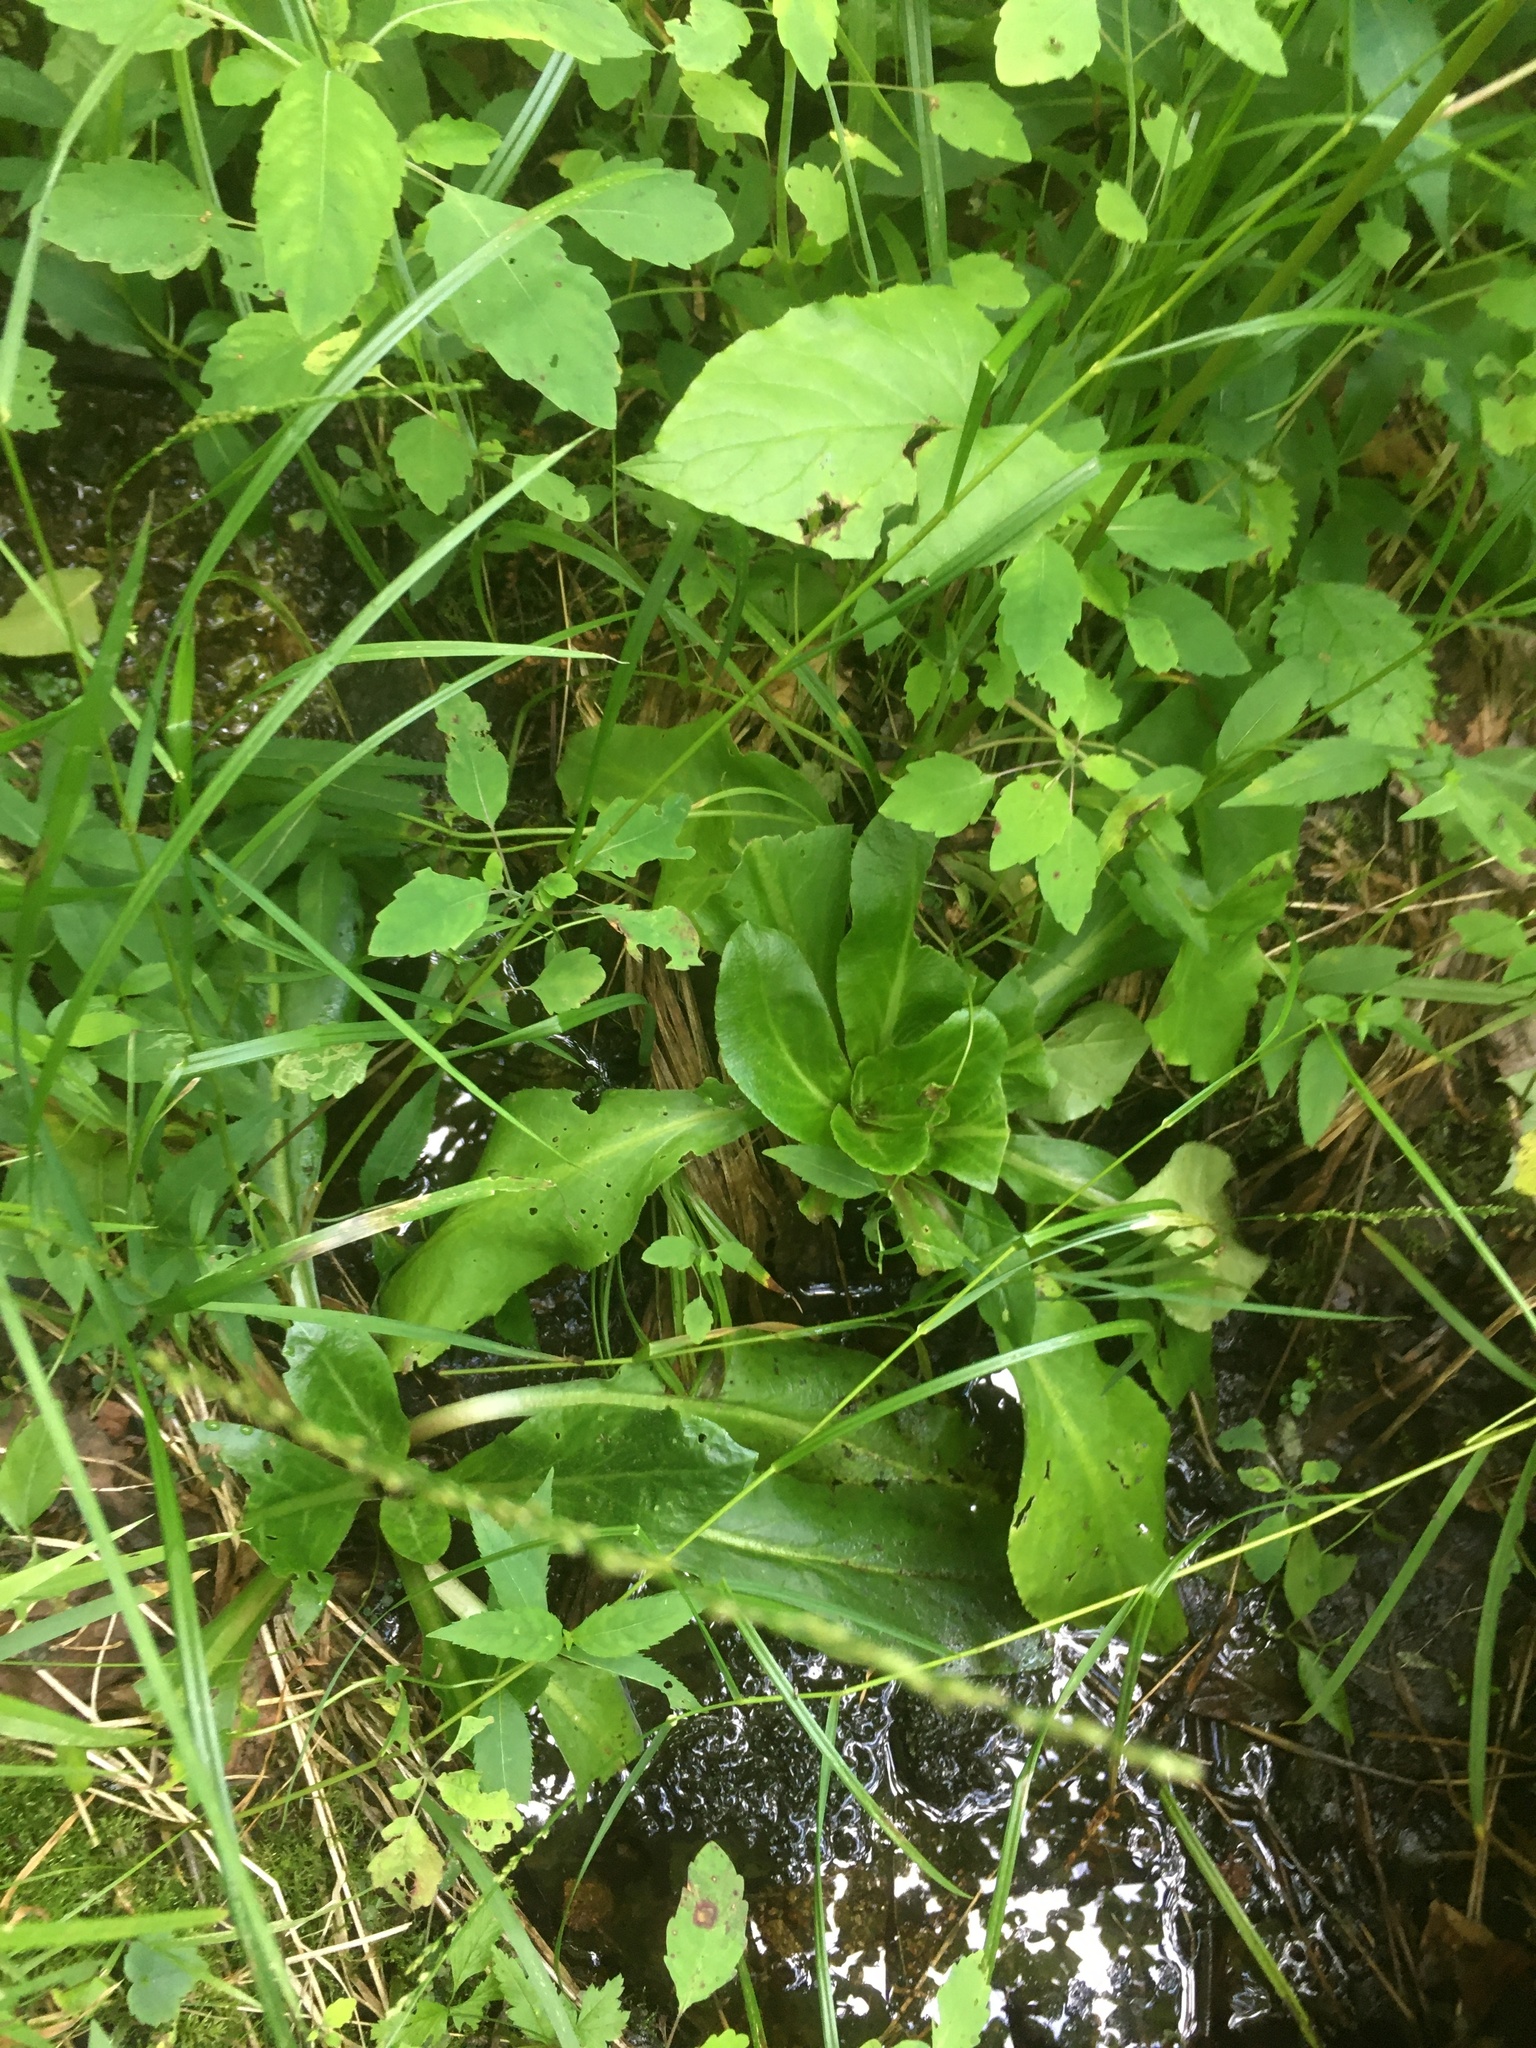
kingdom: Plantae
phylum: Tracheophyta
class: Magnoliopsida
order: Saxifragales
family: Saxifragaceae
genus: Micranthes
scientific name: Micranthes pensylvanica
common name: Marsh saxifrage
